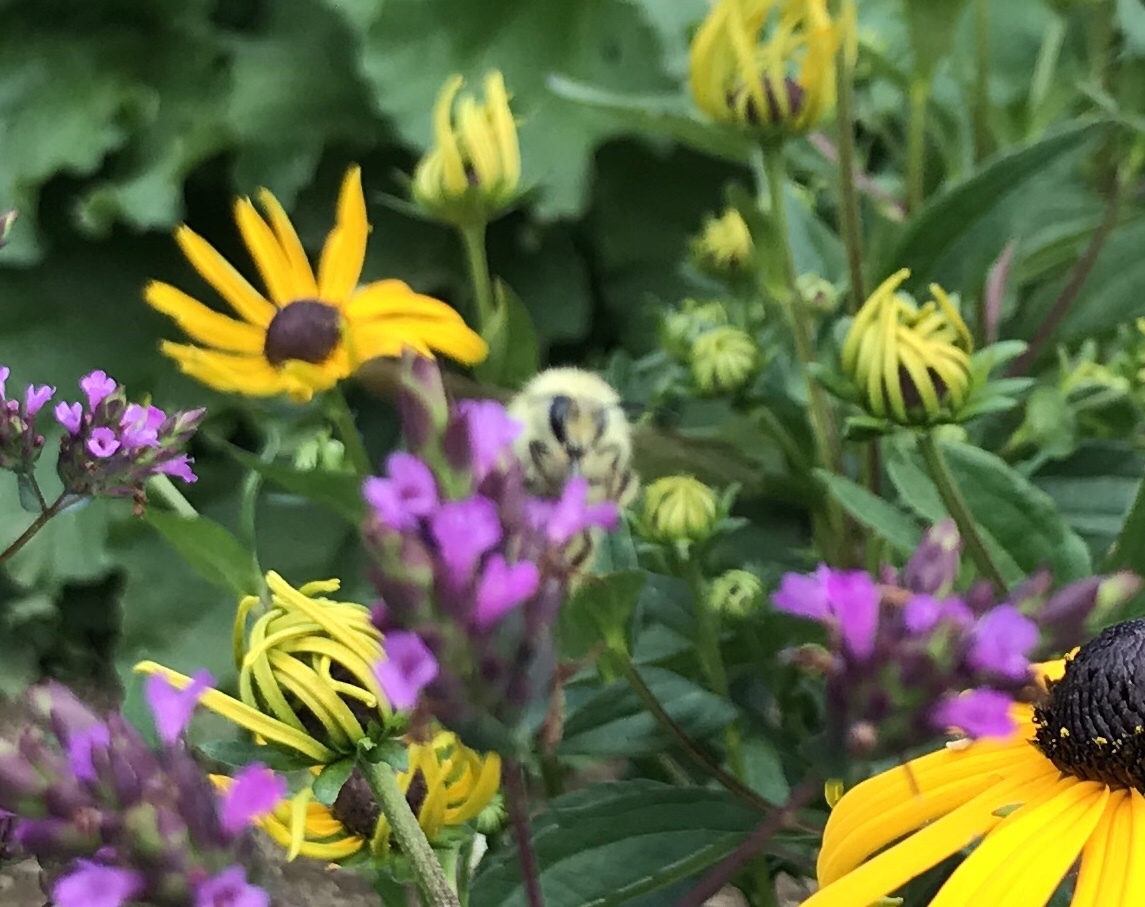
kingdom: Animalia
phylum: Arthropoda
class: Insecta
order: Hymenoptera
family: Apidae
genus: Bombus
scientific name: Bombus mixtus
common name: Fuzzy-horned bumble bee
